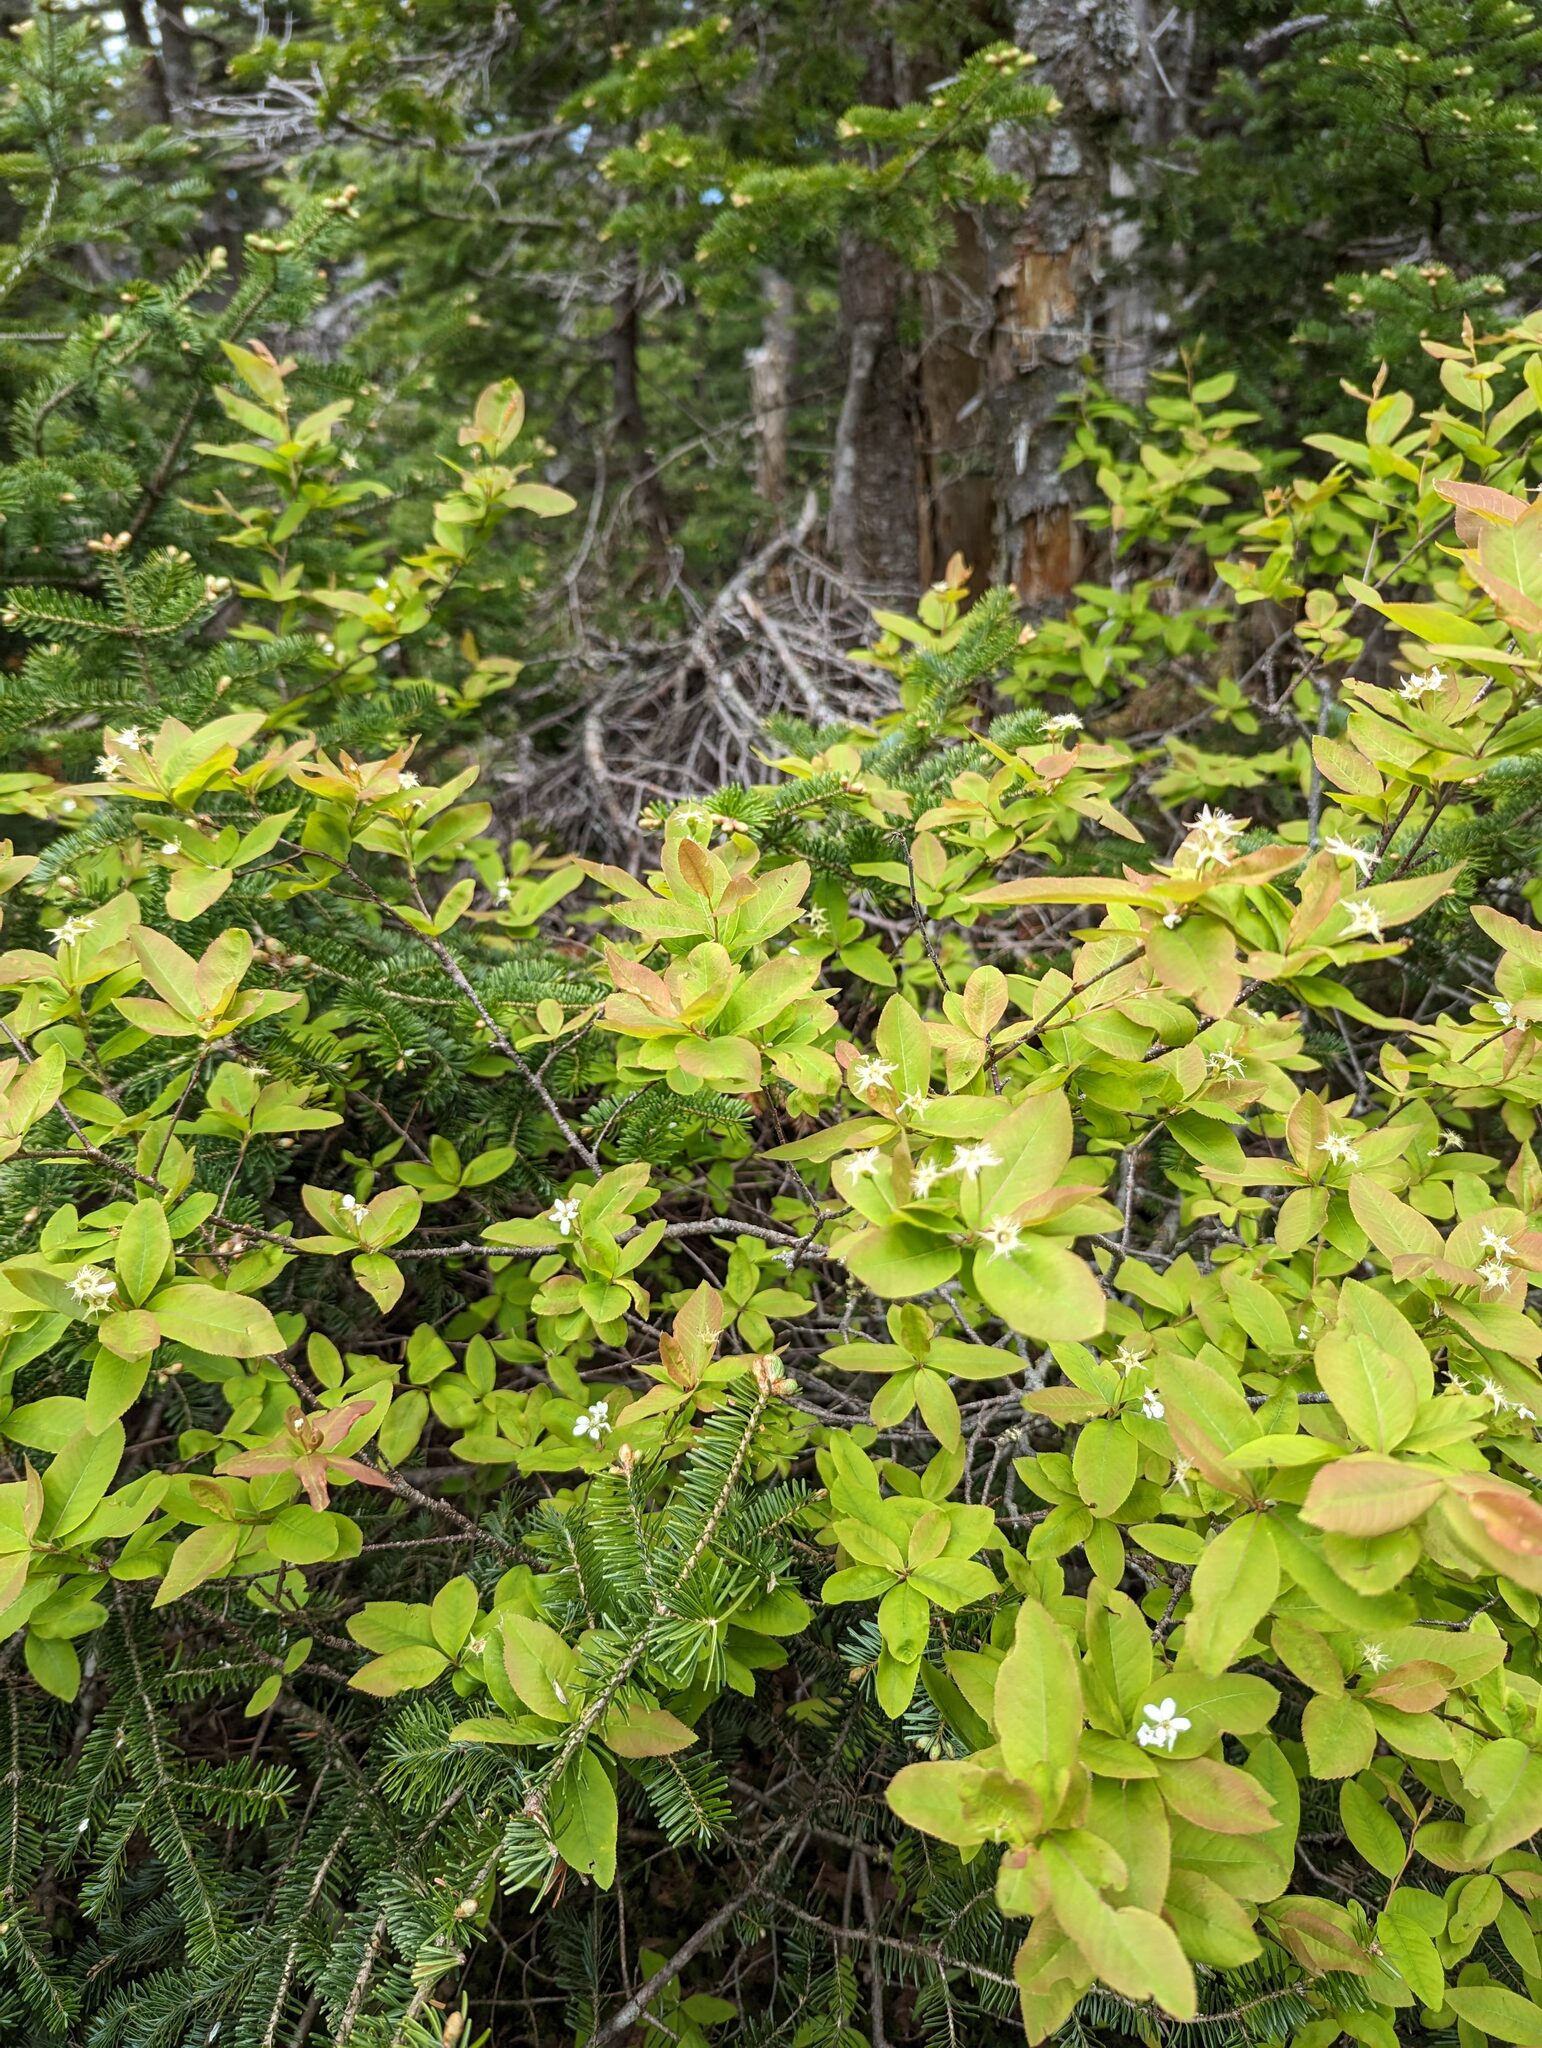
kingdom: Plantae
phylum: Tracheophyta
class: Magnoliopsida
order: Rosales
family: Rosaceae
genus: Amelanchier
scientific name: Amelanchier bartramiana
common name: Mountain serviceberry
